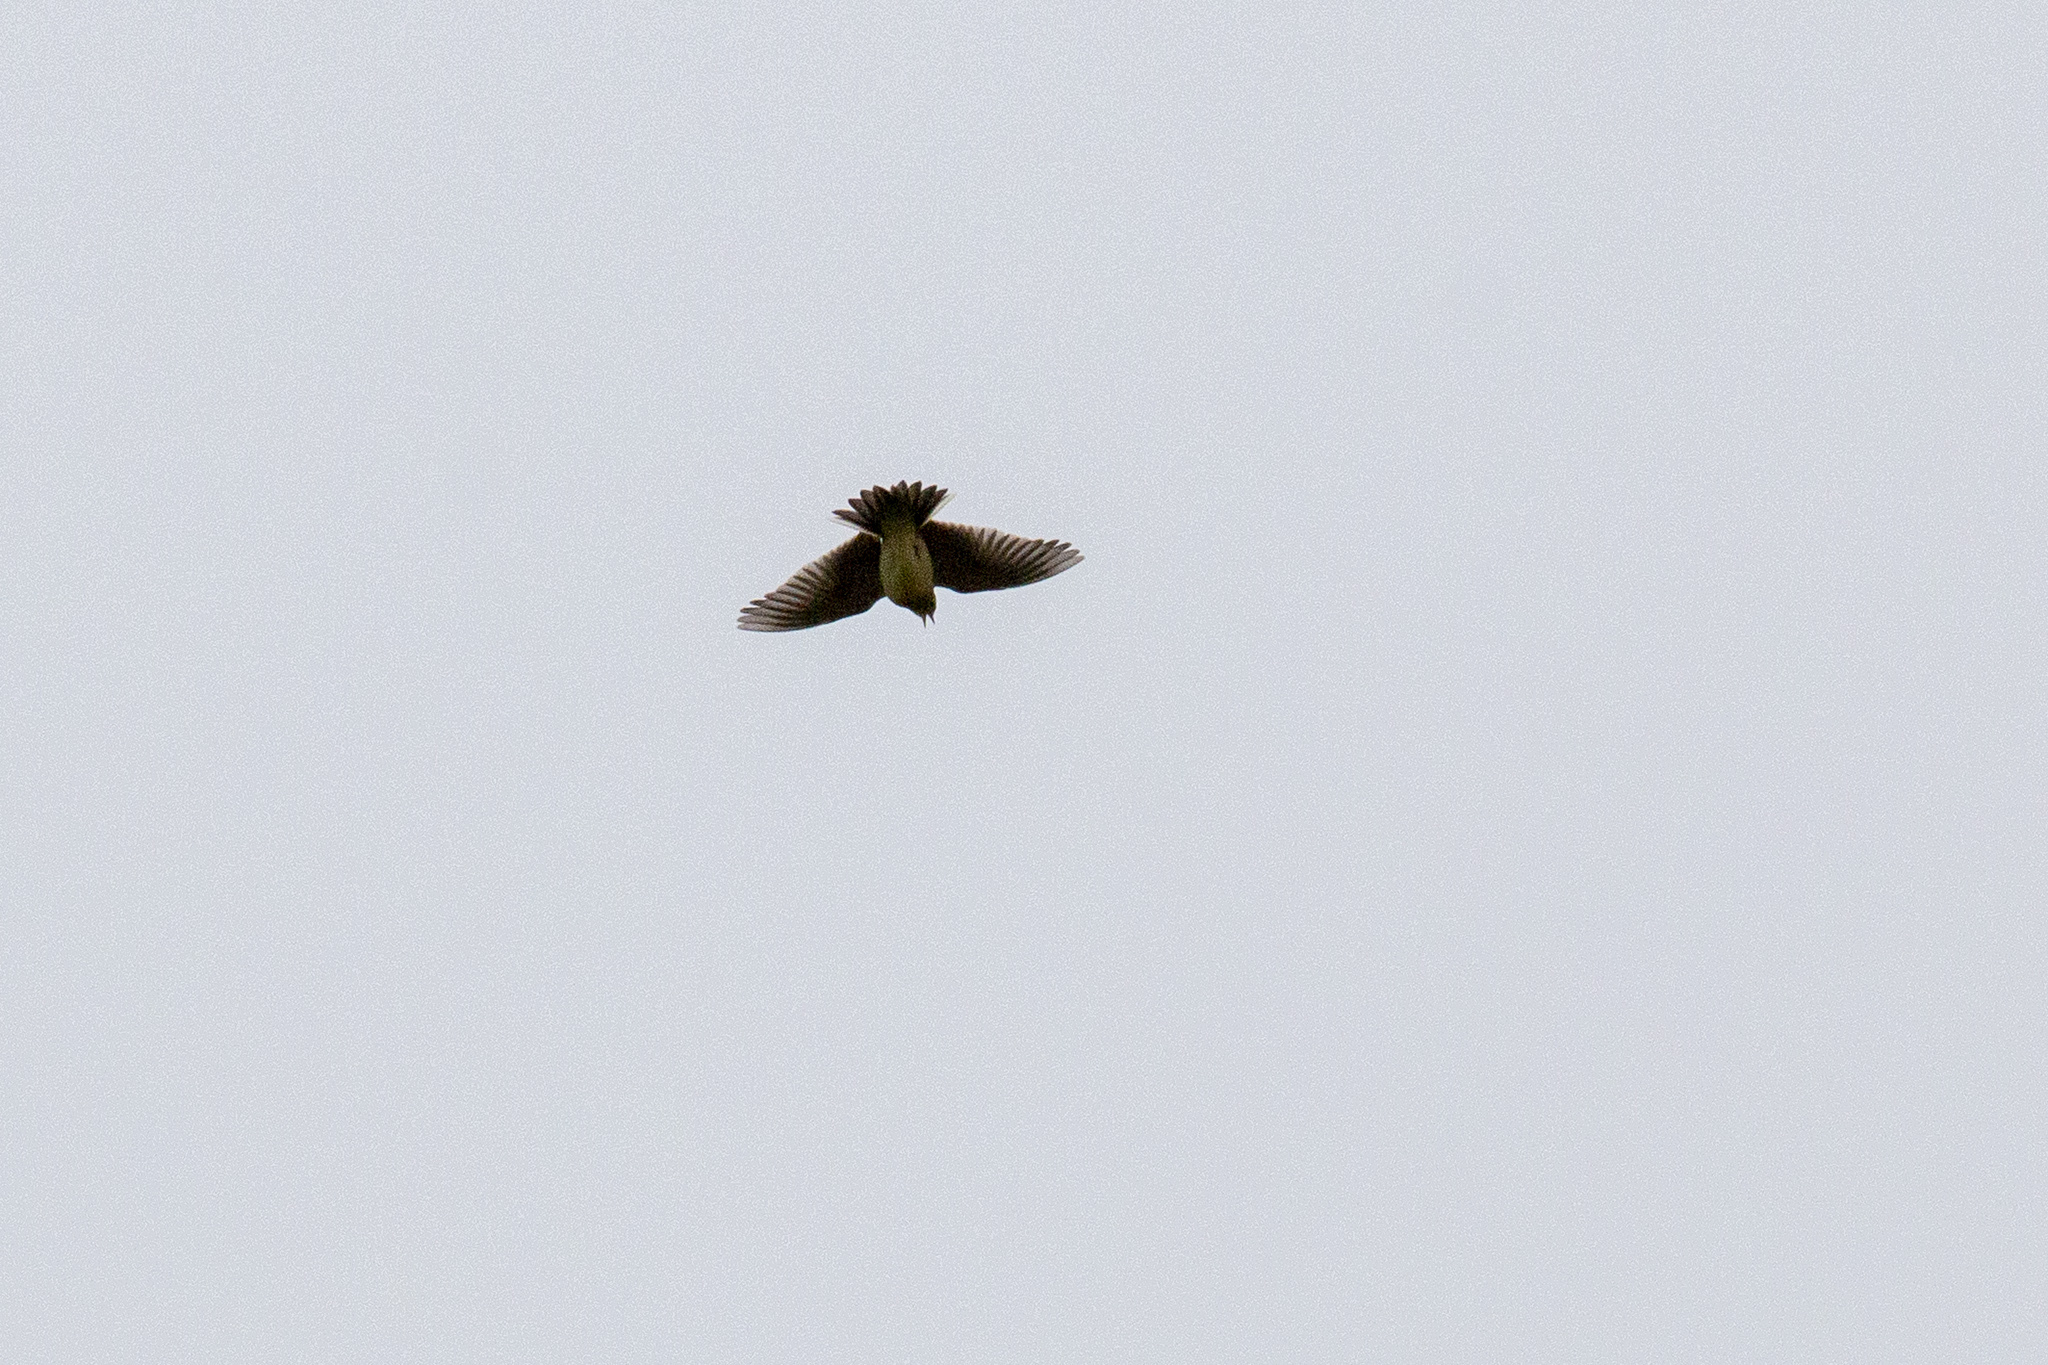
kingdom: Animalia
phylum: Chordata
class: Aves
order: Passeriformes
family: Alaudidae
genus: Alauda
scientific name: Alauda arvensis
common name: Eurasian skylark
